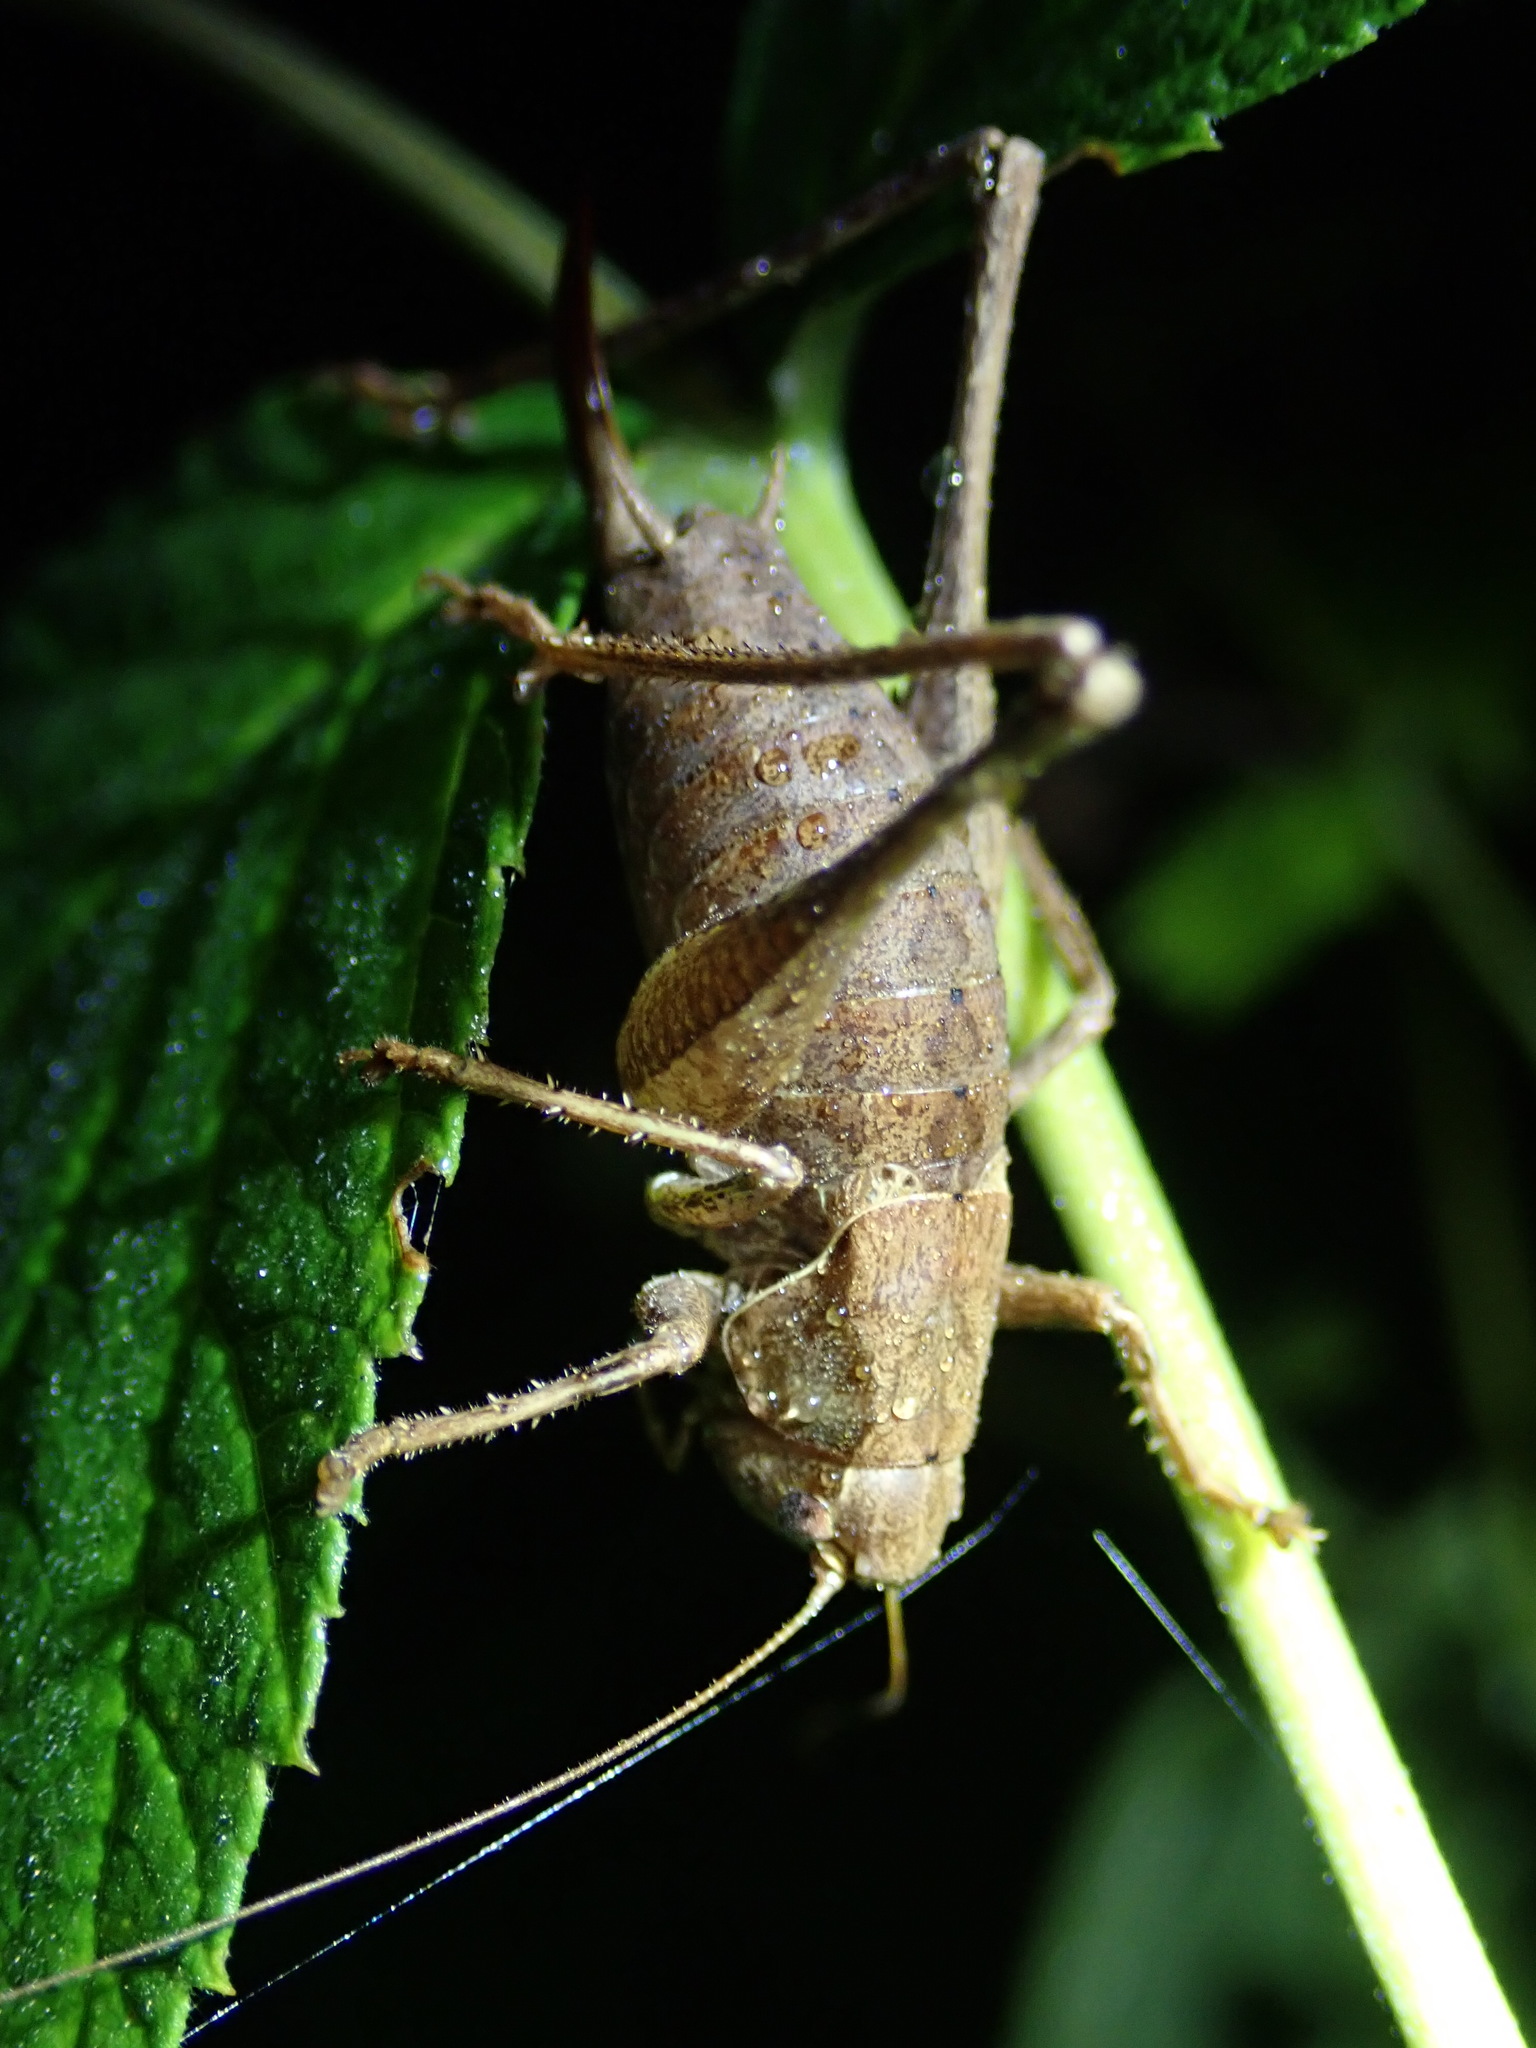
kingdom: Animalia
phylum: Arthropoda
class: Insecta
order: Orthoptera
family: Tettigoniidae
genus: Pholidoptera
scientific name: Pholidoptera griseoaptera
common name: Dark bush-cricket
